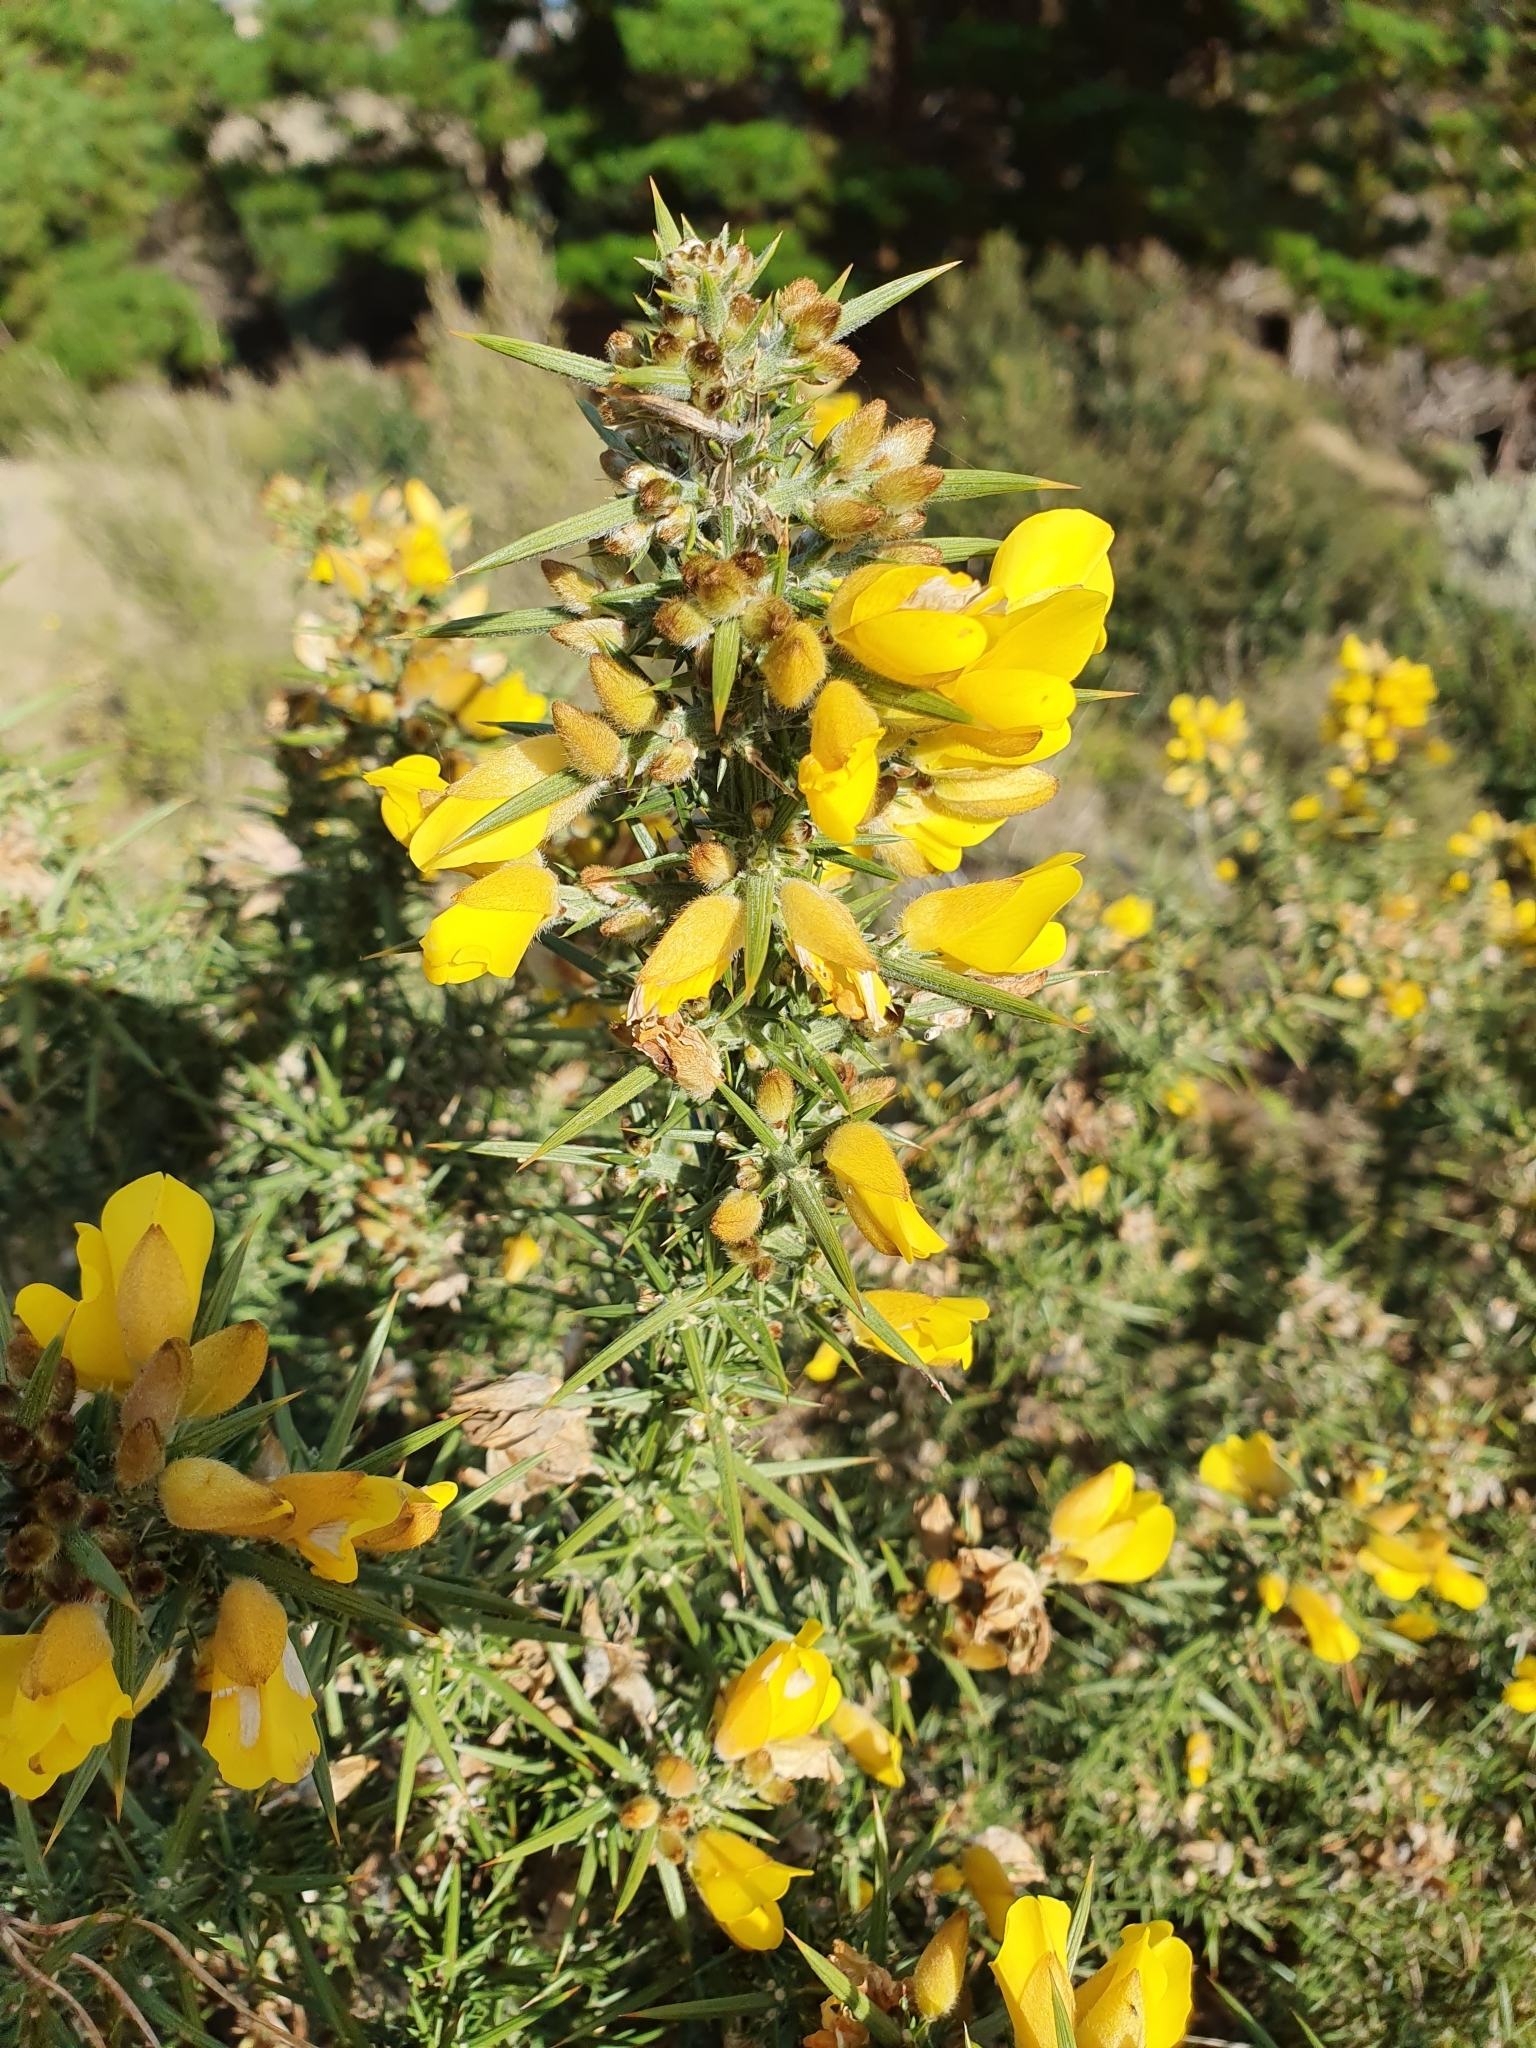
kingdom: Plantae
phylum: Tracheophyta
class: Magnoliopsida
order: Fabales
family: Fabaceae
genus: Ulex
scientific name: Ulex europaeus
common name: Common gorse
